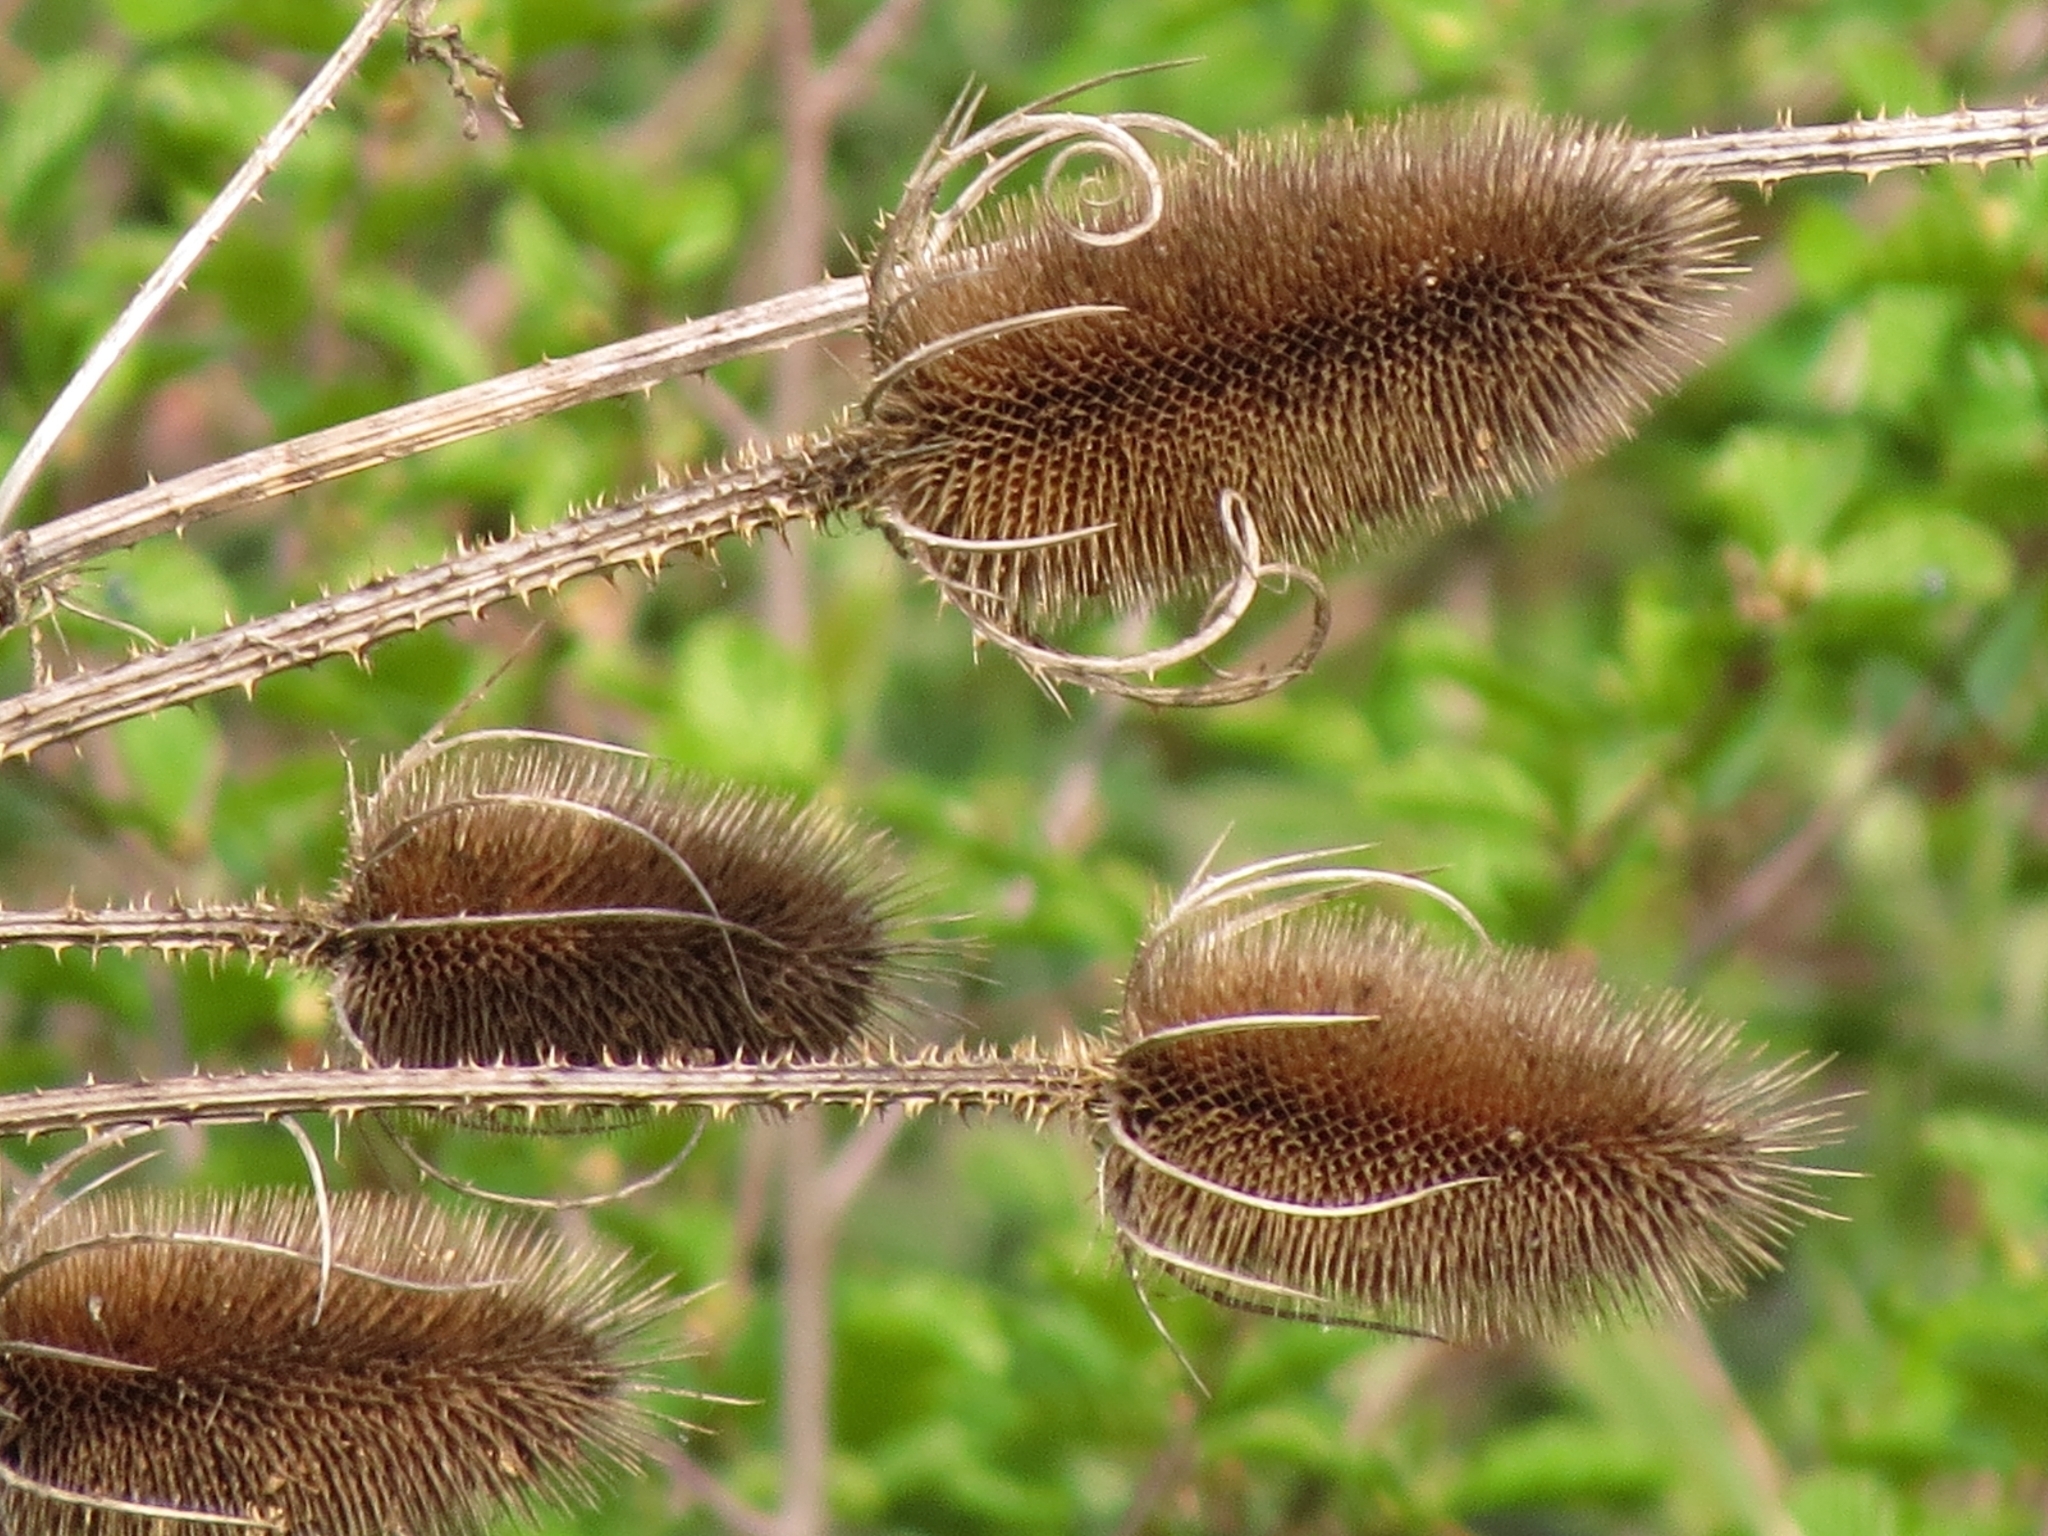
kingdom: Plantae
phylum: Tracheophyta
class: Magnoliopsida
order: Dipsacales
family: Caprifoliaceae
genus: Dipsacus
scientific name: Dipsacus fullonum
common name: Teasel
